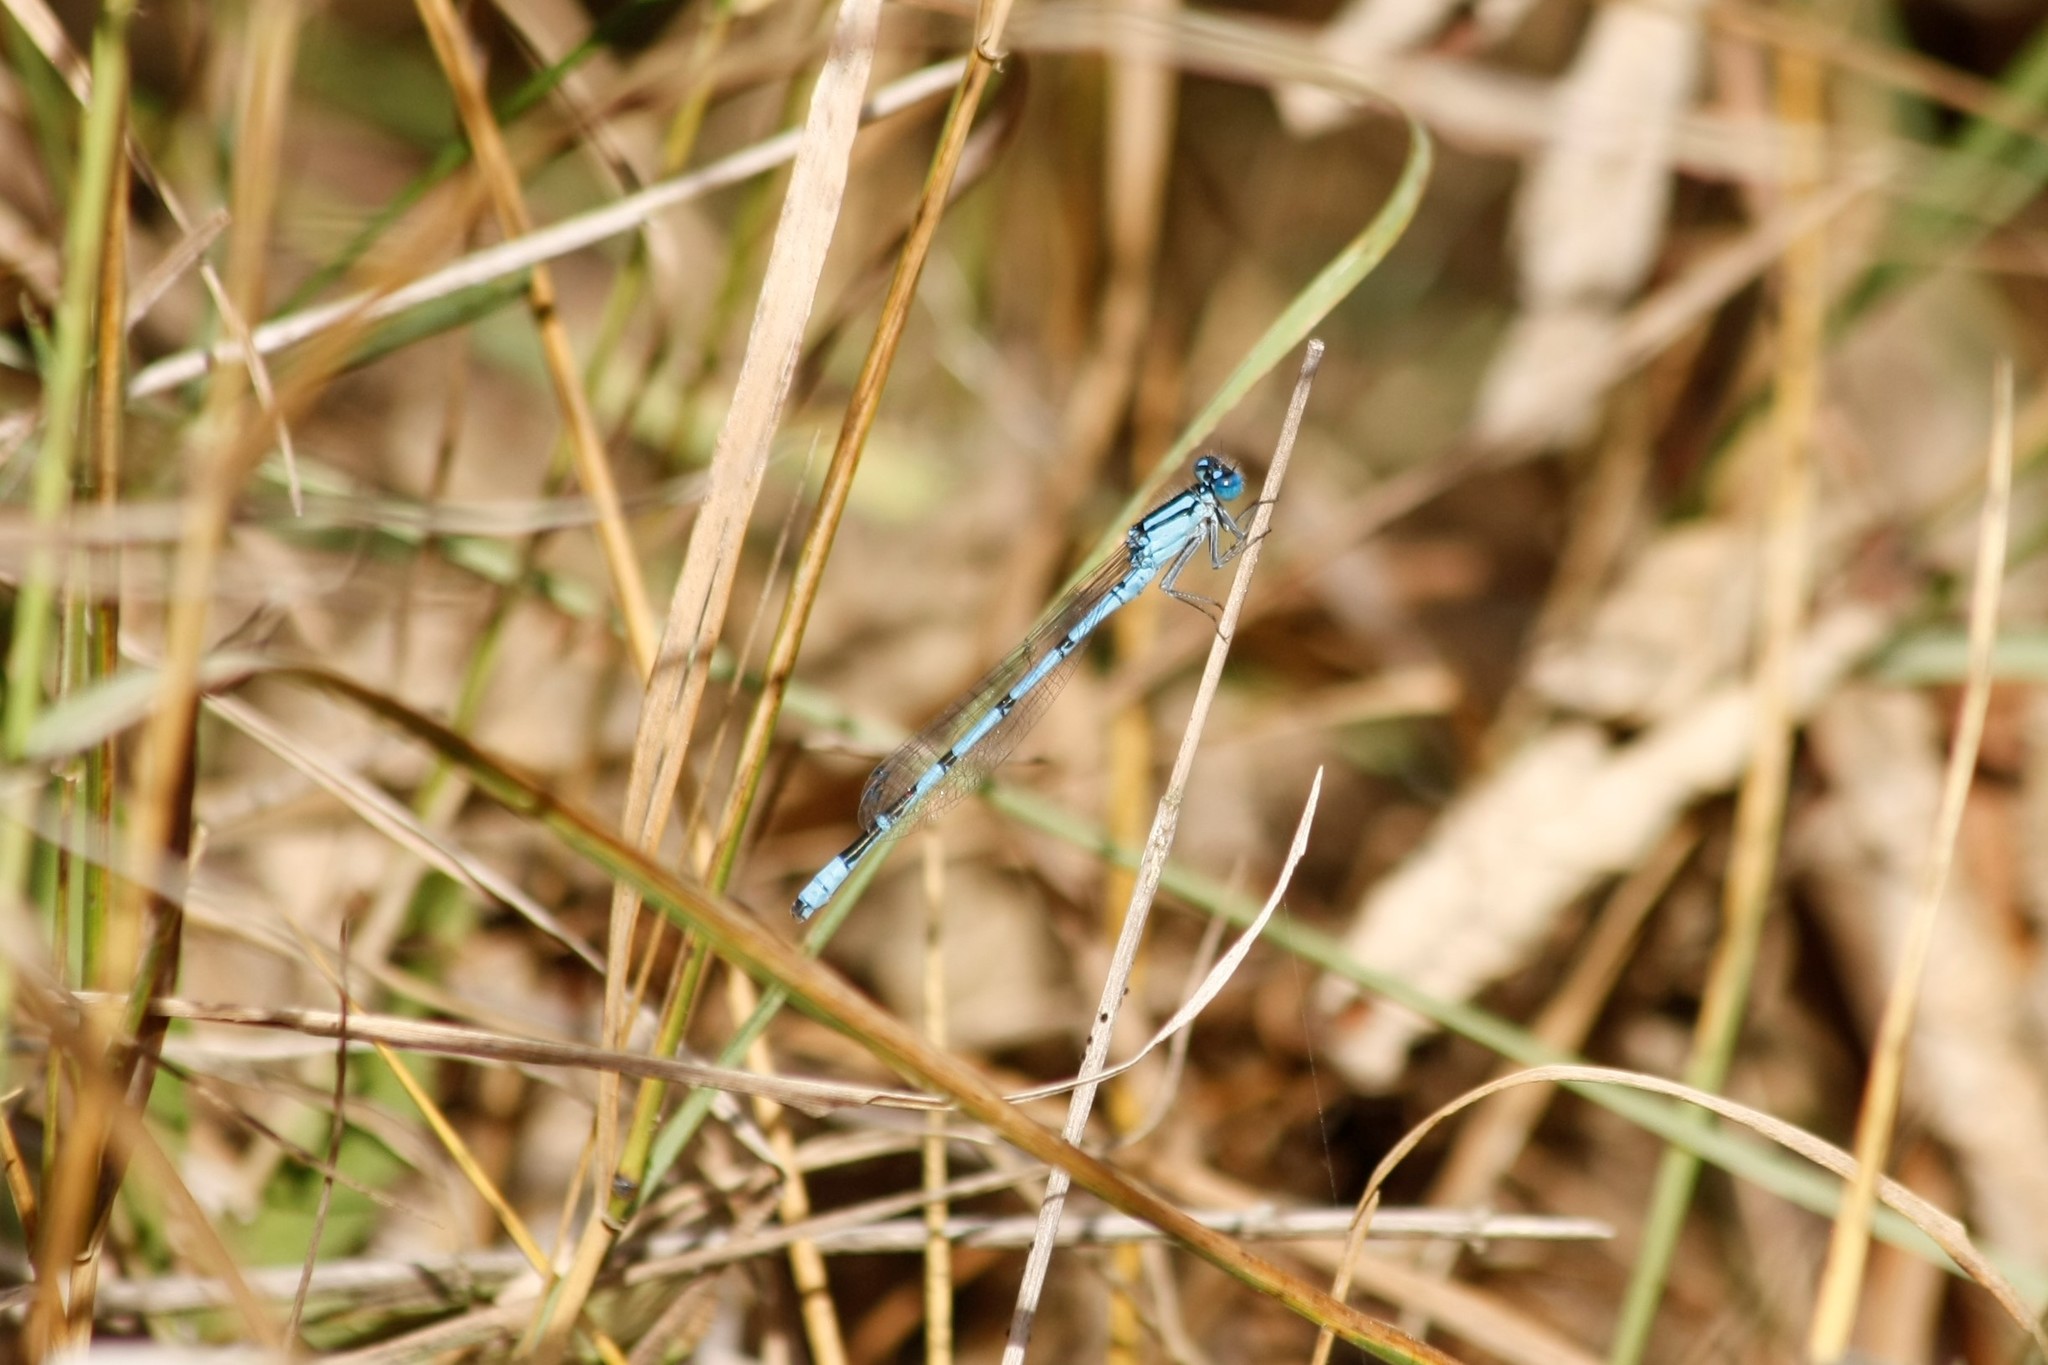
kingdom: Animalia
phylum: Arthropoda
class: Insecta
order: Odonata
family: Coenagrionidae
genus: Enallagma
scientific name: Enallagma cyathigerum
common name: Common blue damselfly
